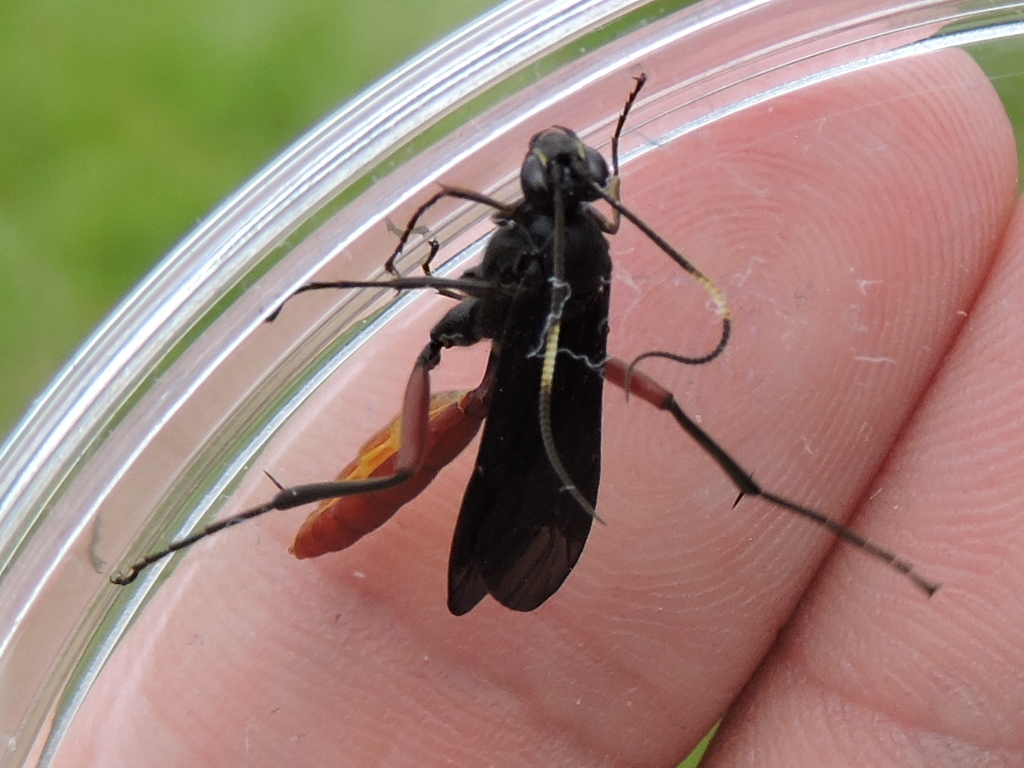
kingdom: Animalia
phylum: Arthropoda
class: Insecta
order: Hymenoptera
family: Ichneumonidae
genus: Limonethe
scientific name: Limonethe maurator
